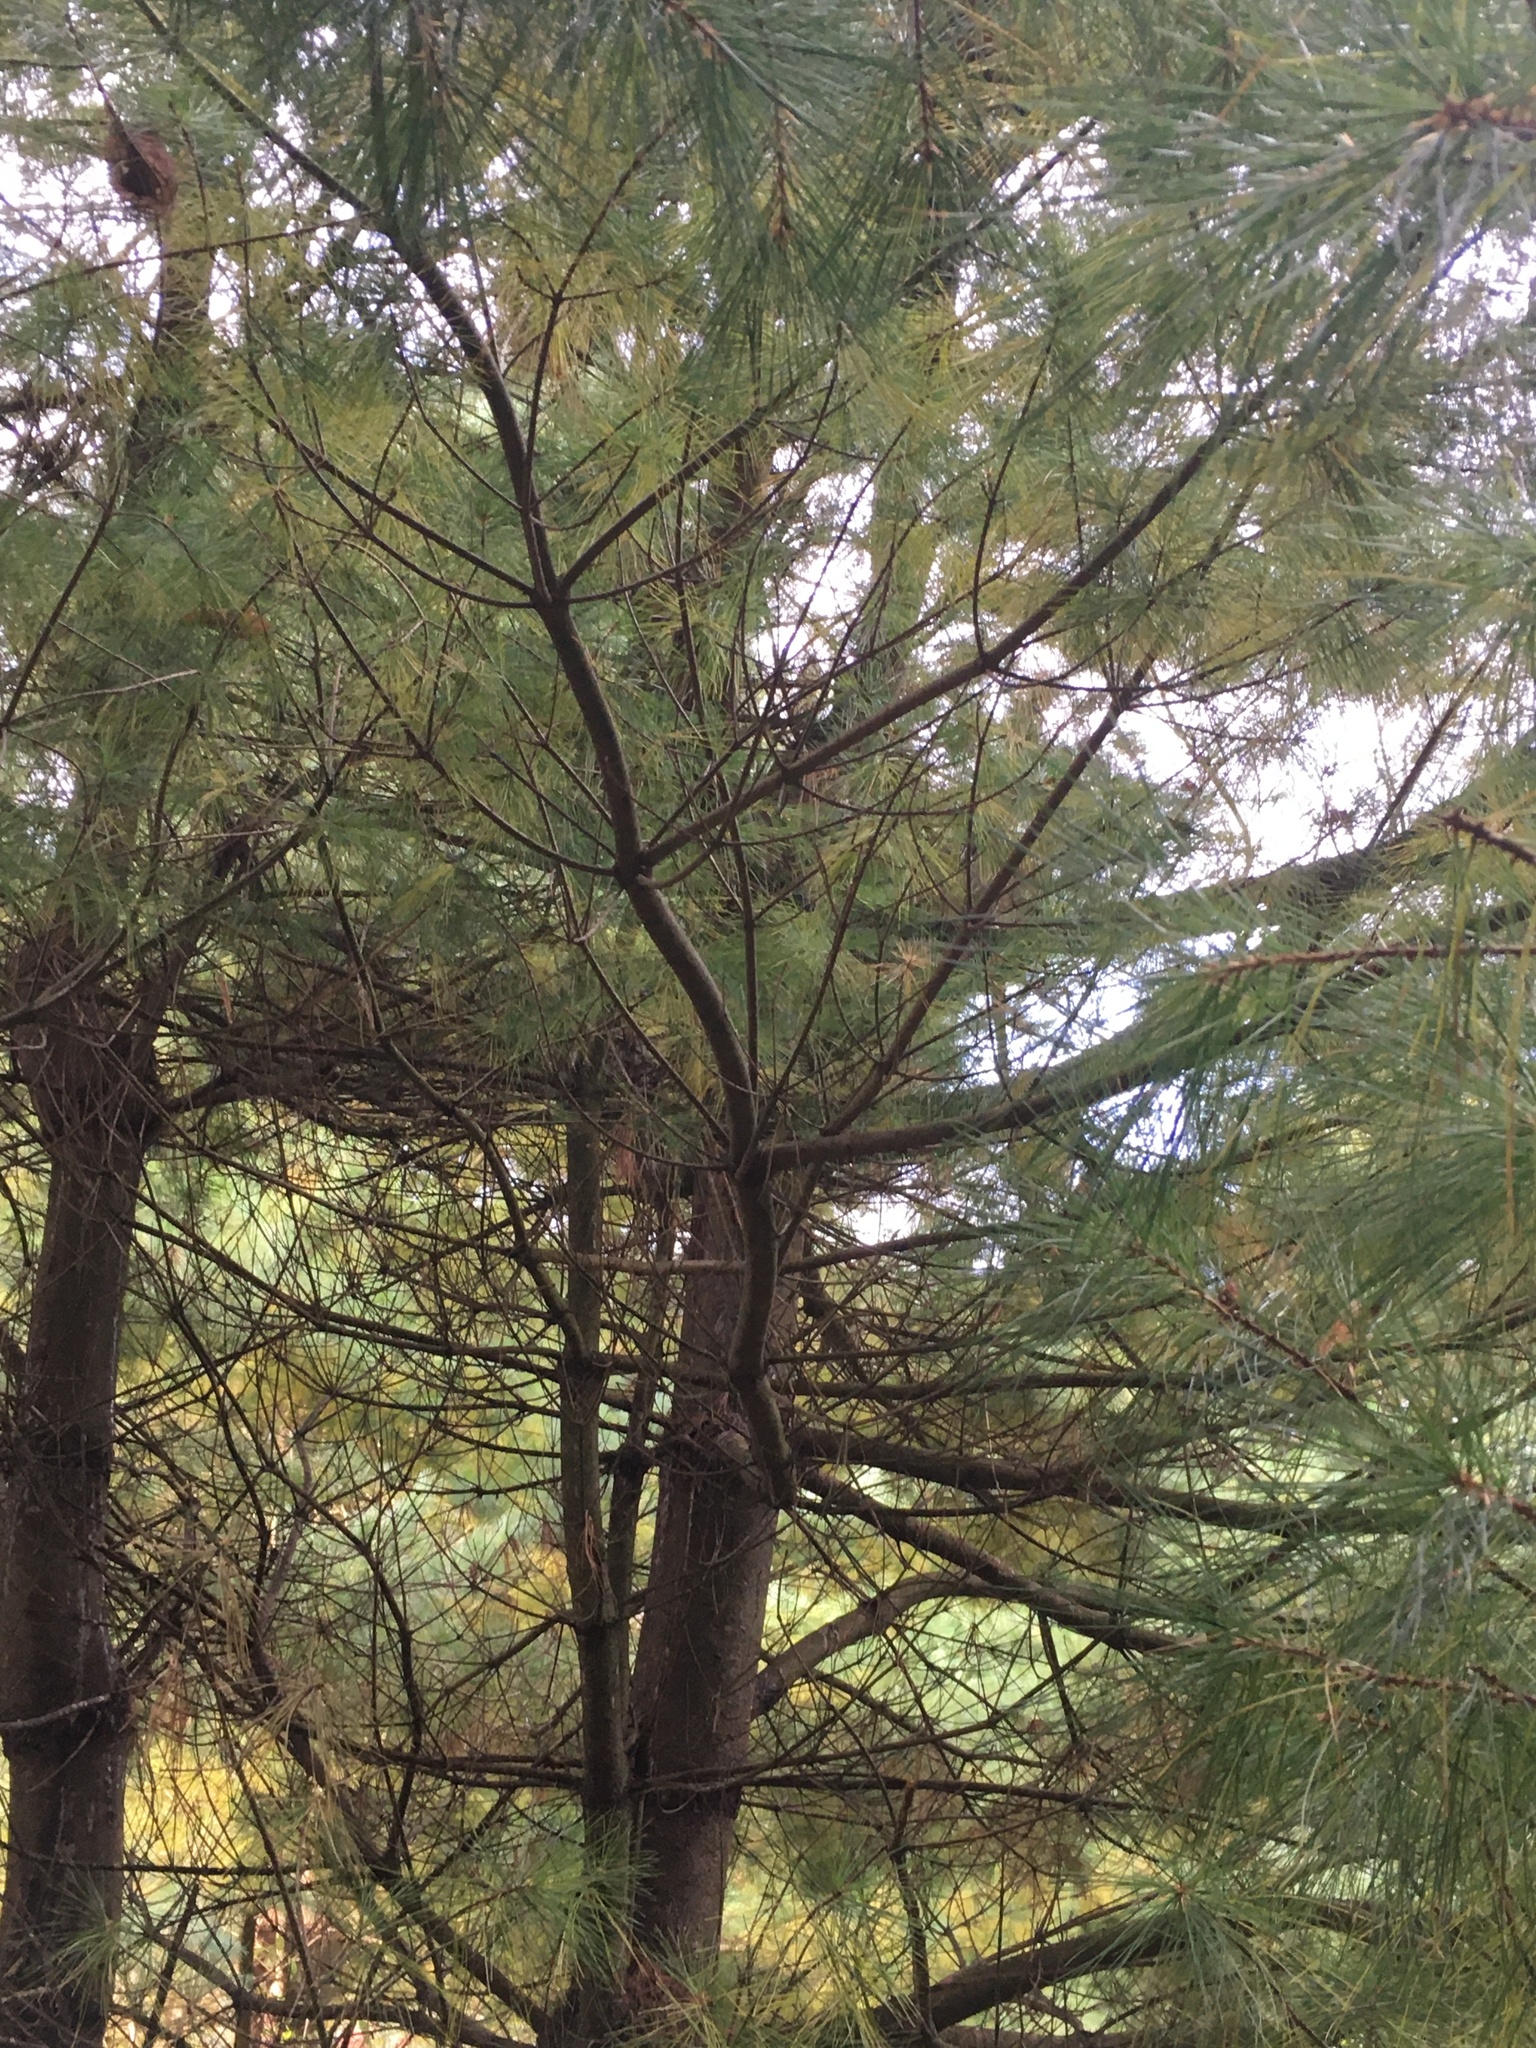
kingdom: Plantae
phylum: Tracheophyta
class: Pinopsida
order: Pinales
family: Pinaceae
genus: Pinus
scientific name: Pinus strobus
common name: Weymouth pine
